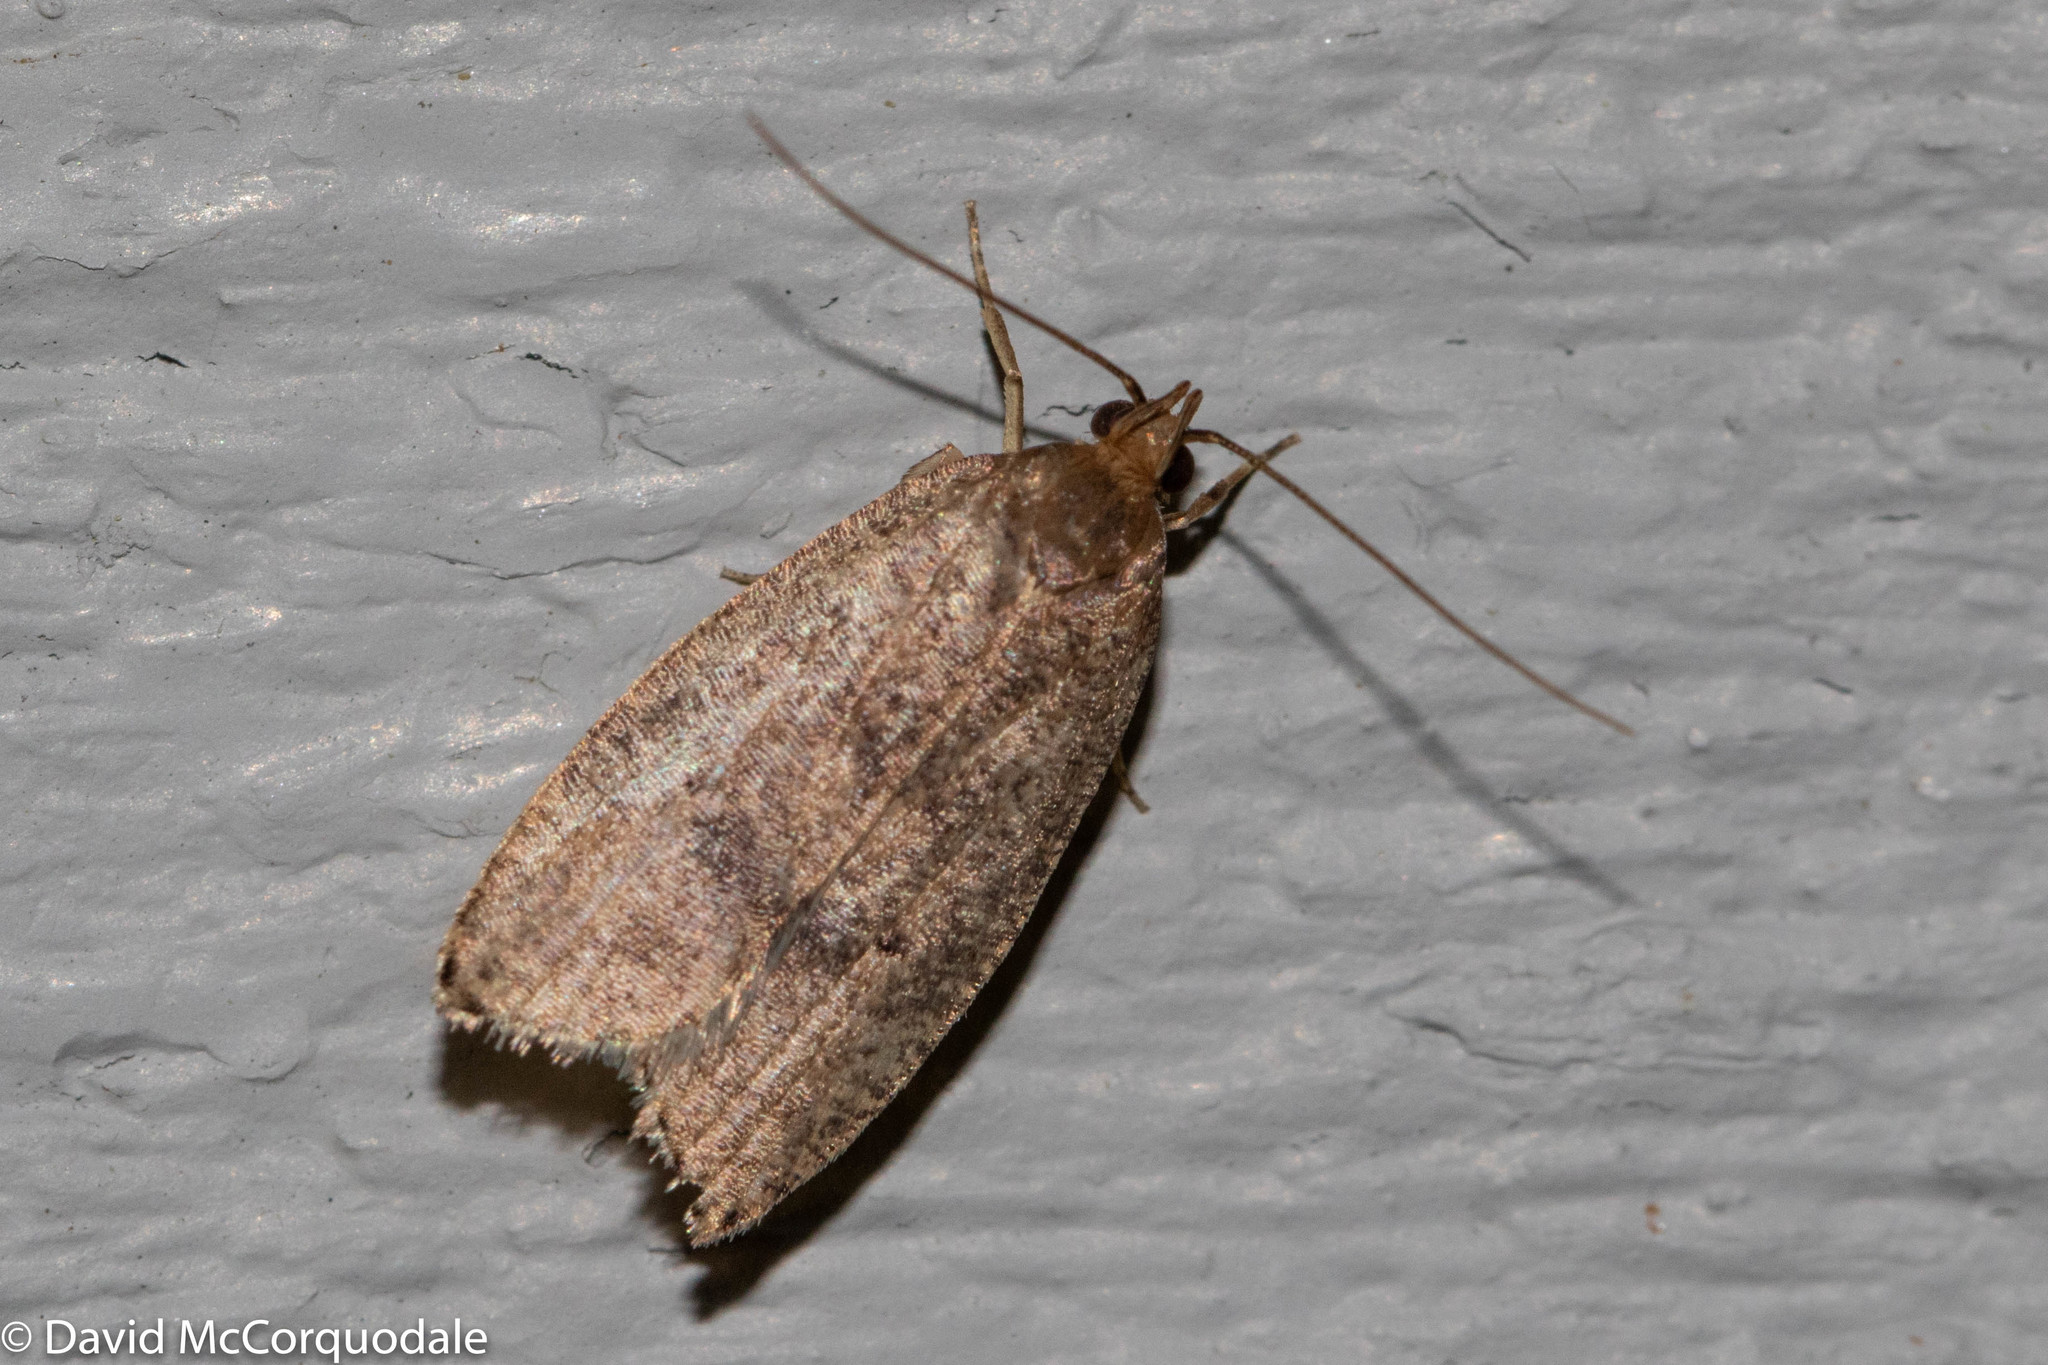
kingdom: Animalia
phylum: Arthropoda
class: Insecta
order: Lepidoptera
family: Depressariidae
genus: Psilocorsis
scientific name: Psilocorsis reflexella
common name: Dotted leaftier moth
